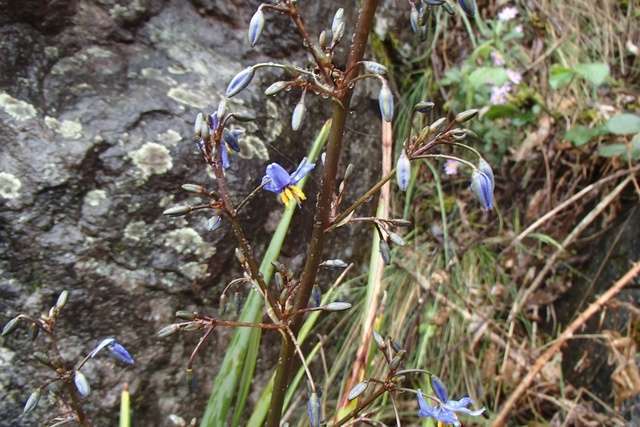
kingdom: Plantae
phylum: Tracheophyta
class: Liliopsida
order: Asparagales
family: Asphodelaceae
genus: Dianella
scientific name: Dianella tasmanica
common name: Tasman flax-lily
